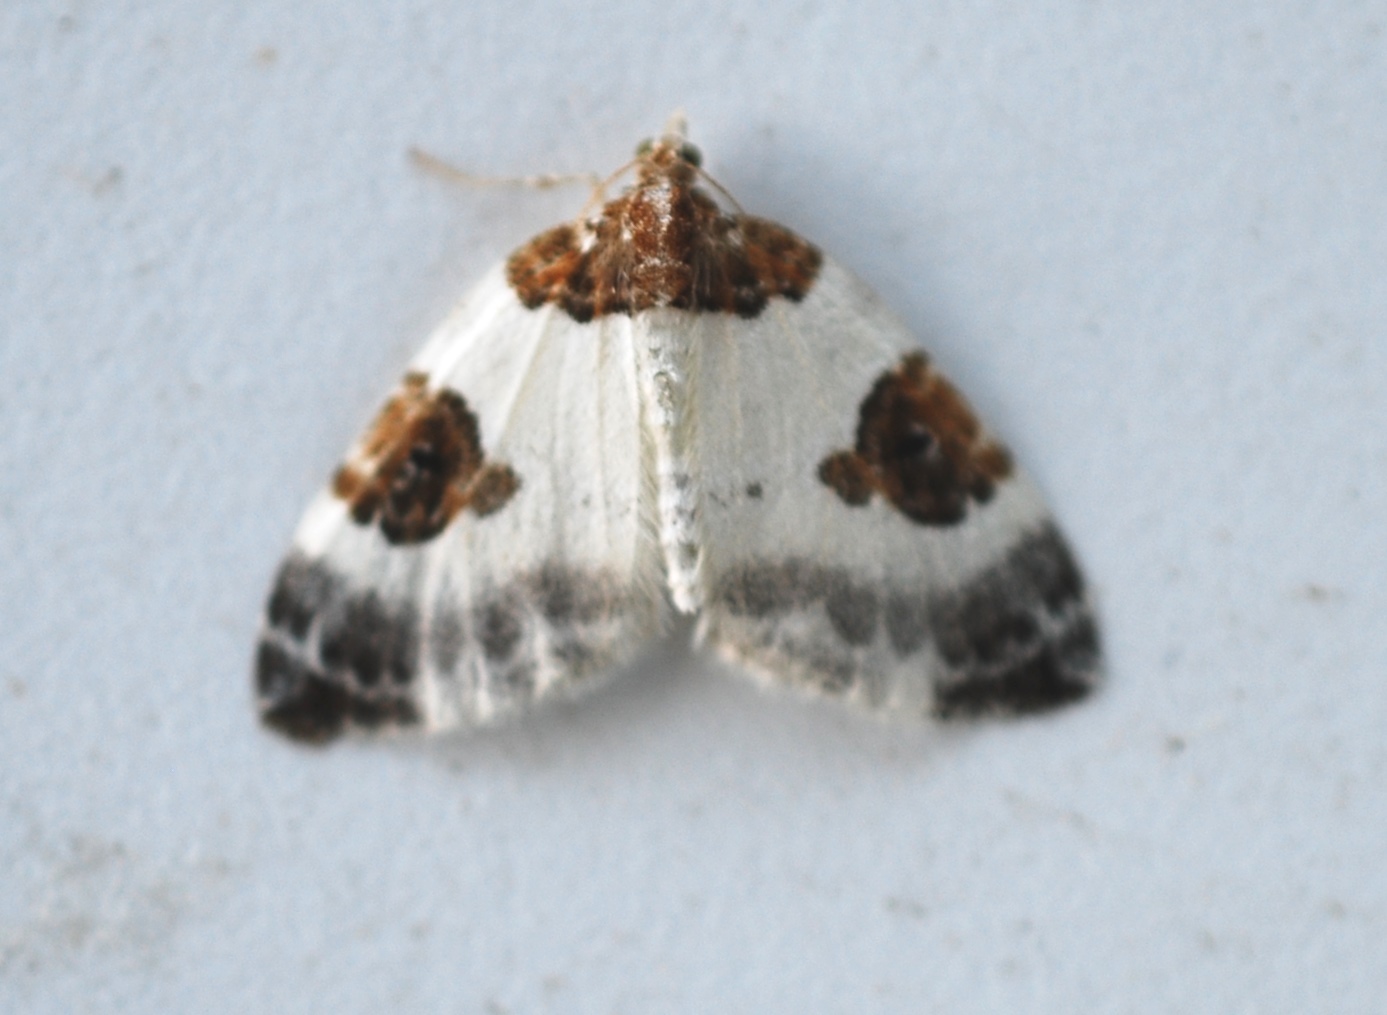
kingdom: Animalia
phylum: Arthropoda
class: Insecta
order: Lepidoptera
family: Geometridae
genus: Plemyria
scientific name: Plemyria rubiginata
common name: Blue-bordered carpet
